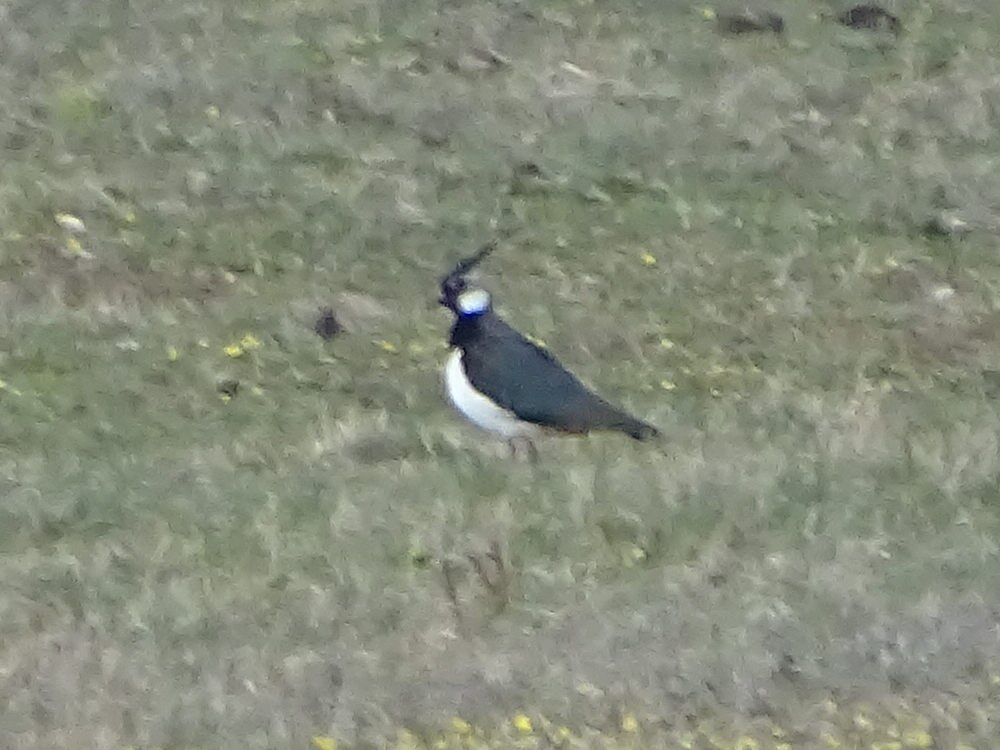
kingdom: Animalia
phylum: Chordata
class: Aves
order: Charadriiformes
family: Charadriidae
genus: Vanellus
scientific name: Vanellus vanellus
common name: Northern lapwing
